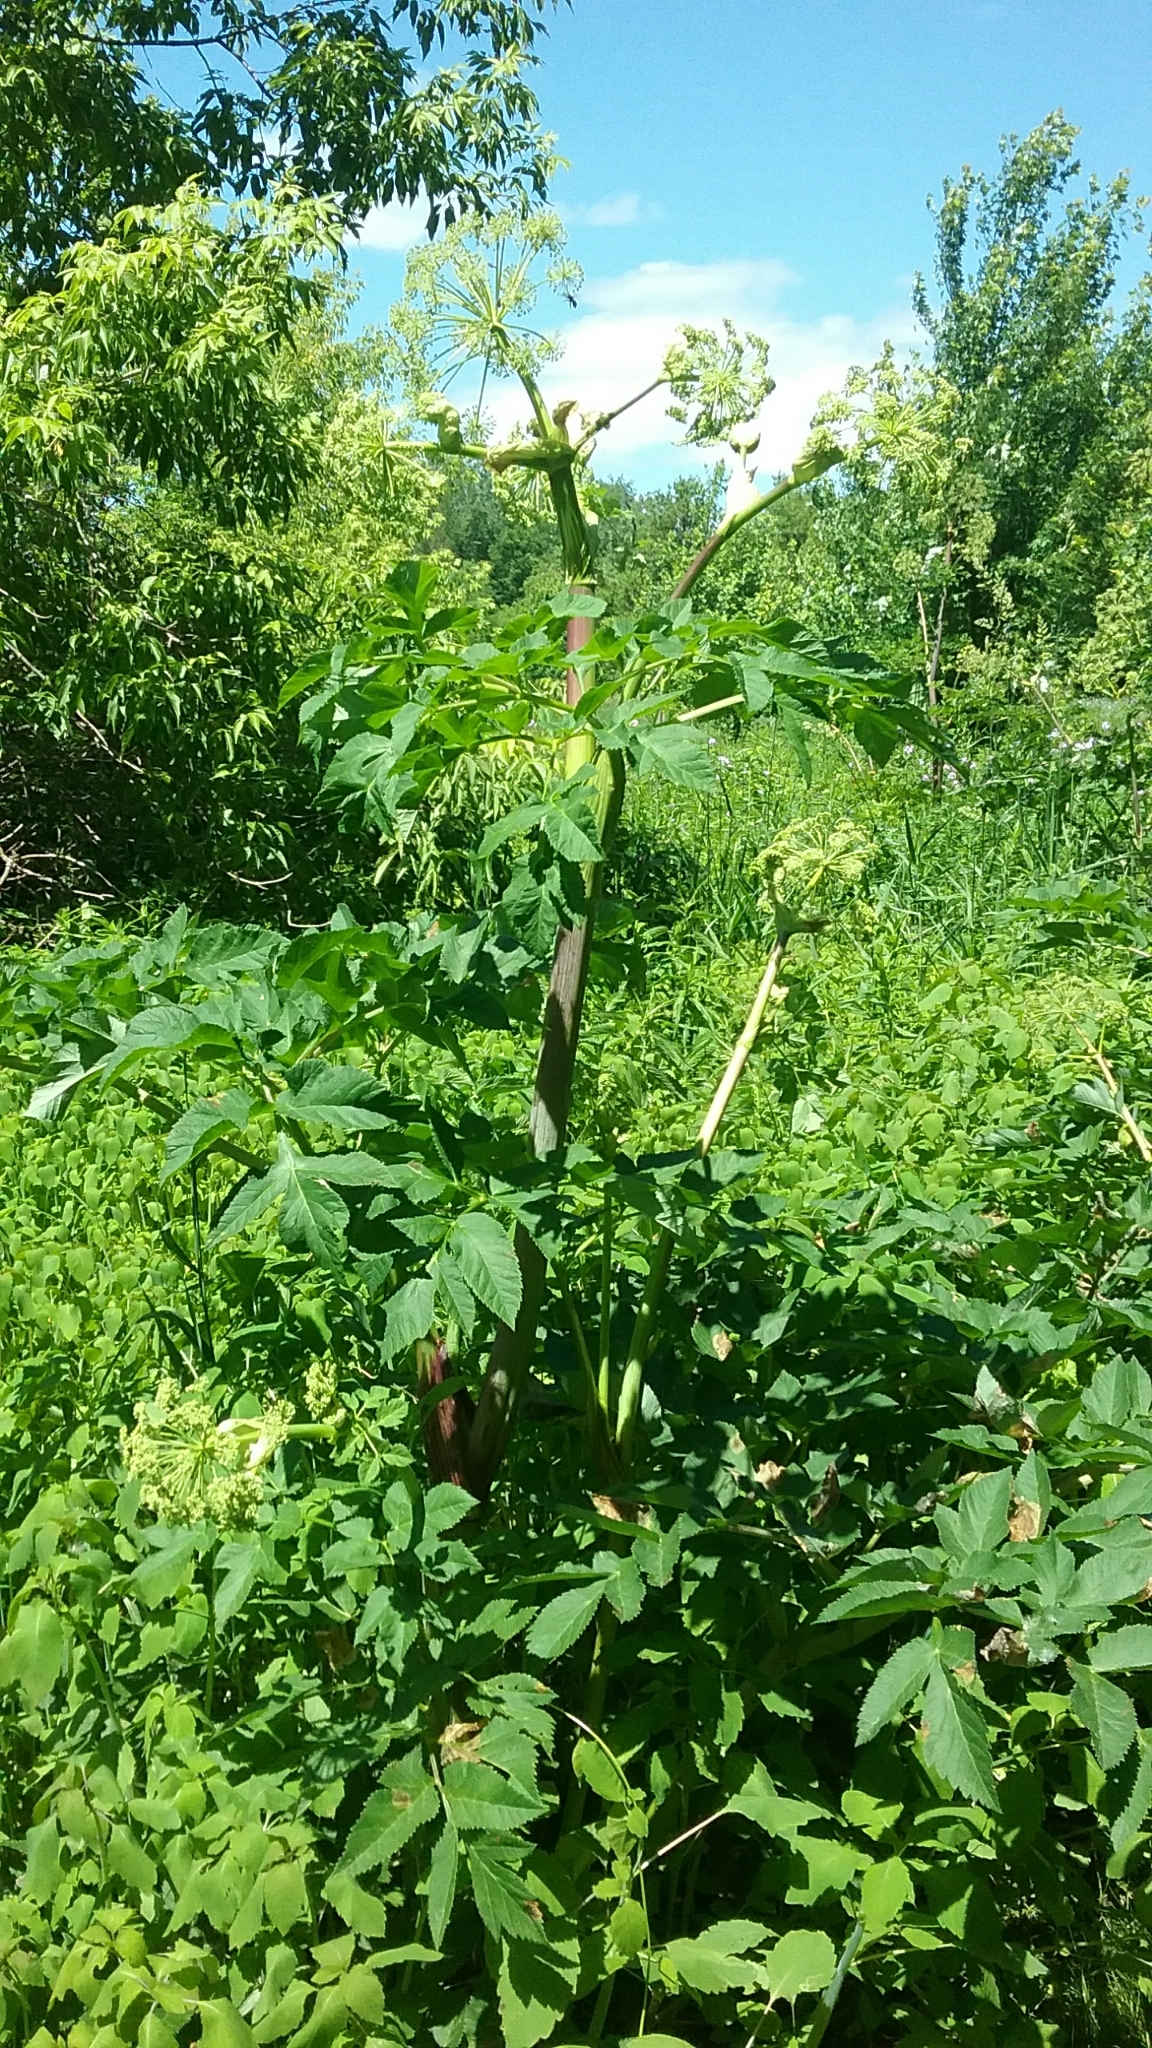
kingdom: Plantae
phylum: Tracheophyta
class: Magnoliopsida
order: Apiales
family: Apiaceae
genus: Angelica
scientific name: Angelica atropurpurea
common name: Great angelica
